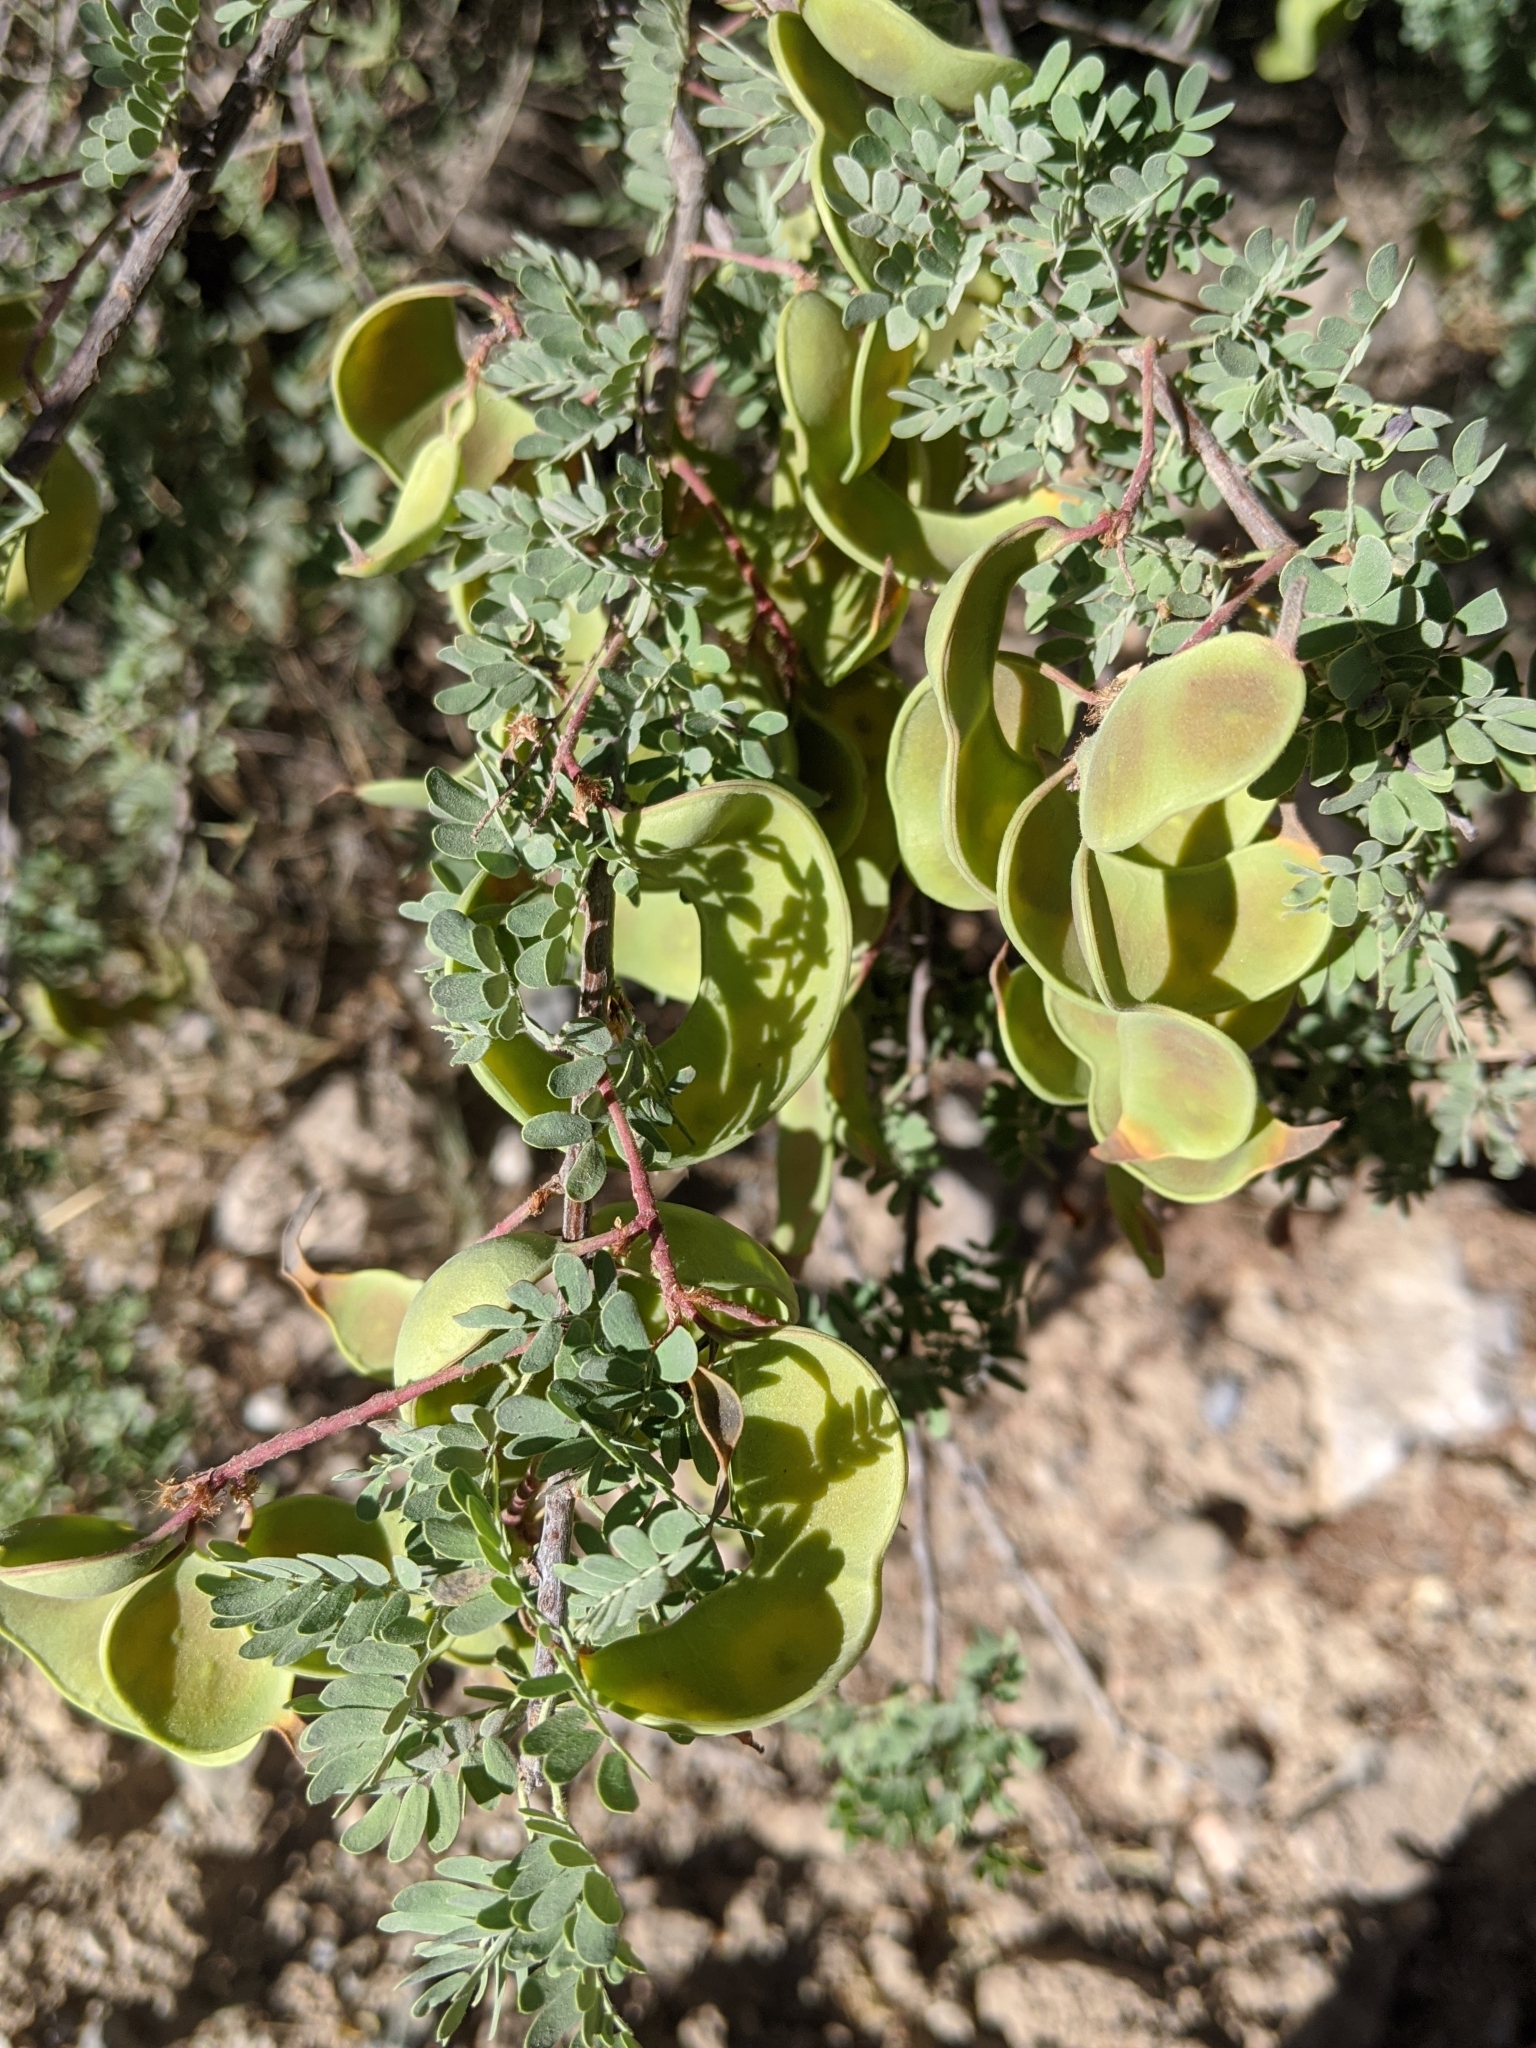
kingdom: Plantae
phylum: Tracheophyta
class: Magnoliopsida
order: Fabales
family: Fabaceae
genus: Senegalia
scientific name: Senegalia greggii
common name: Texas-mimosa
